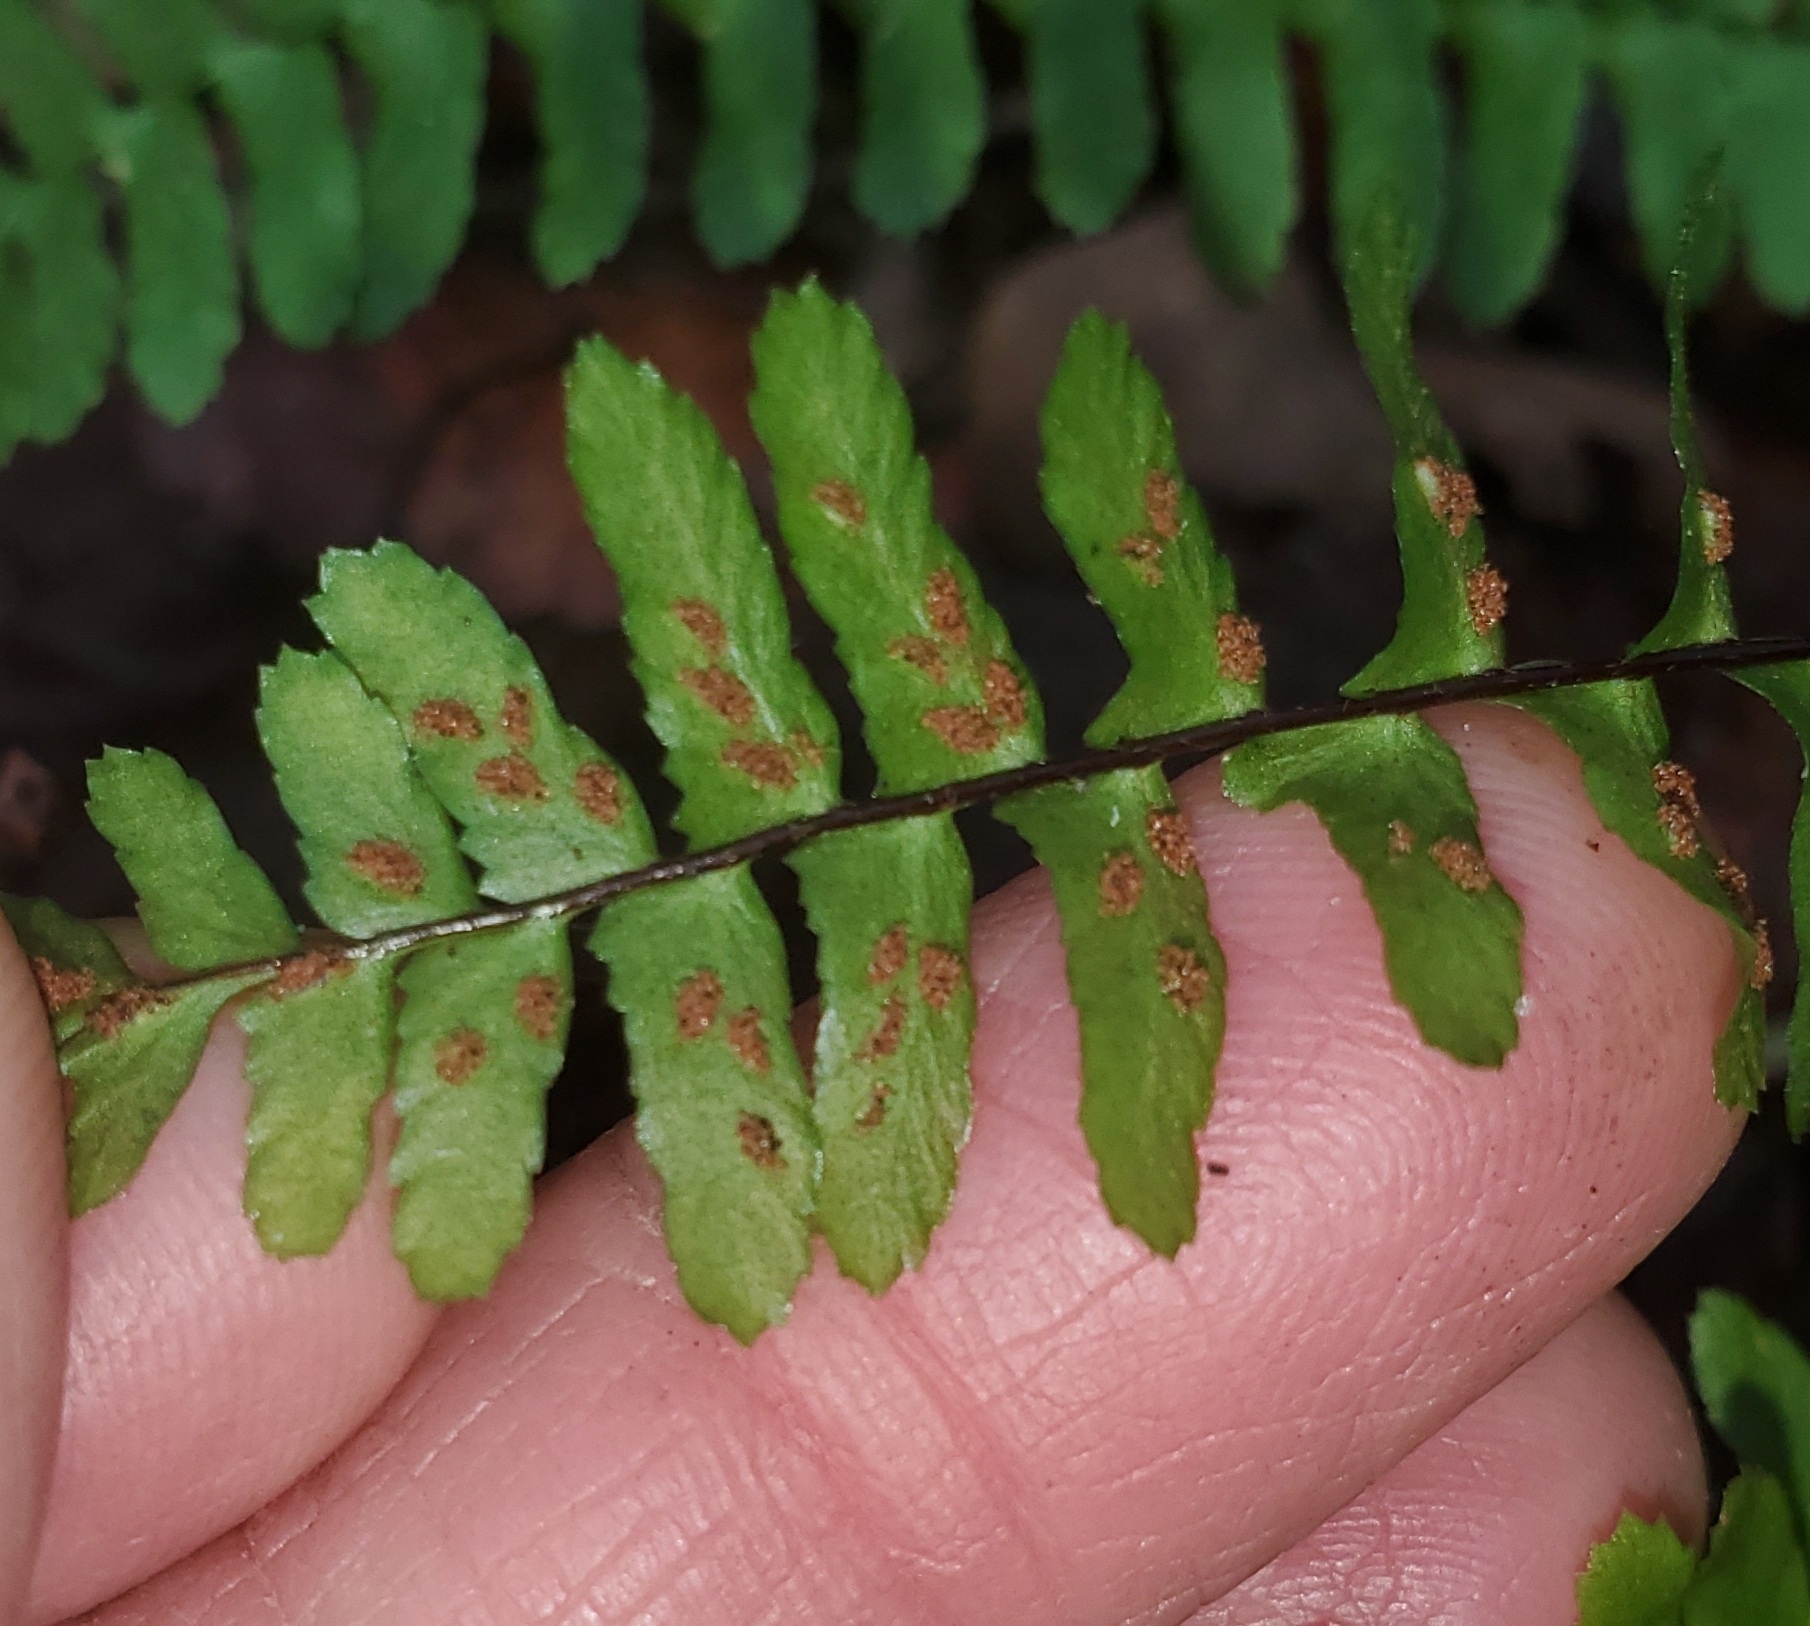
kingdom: Plantae
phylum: Tracheophyta
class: Polypodiopsida
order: Polypodiales
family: Aspleniaceae
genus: Asplenium
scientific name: Asplenium platyneuron
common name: Ebony spleenwort
